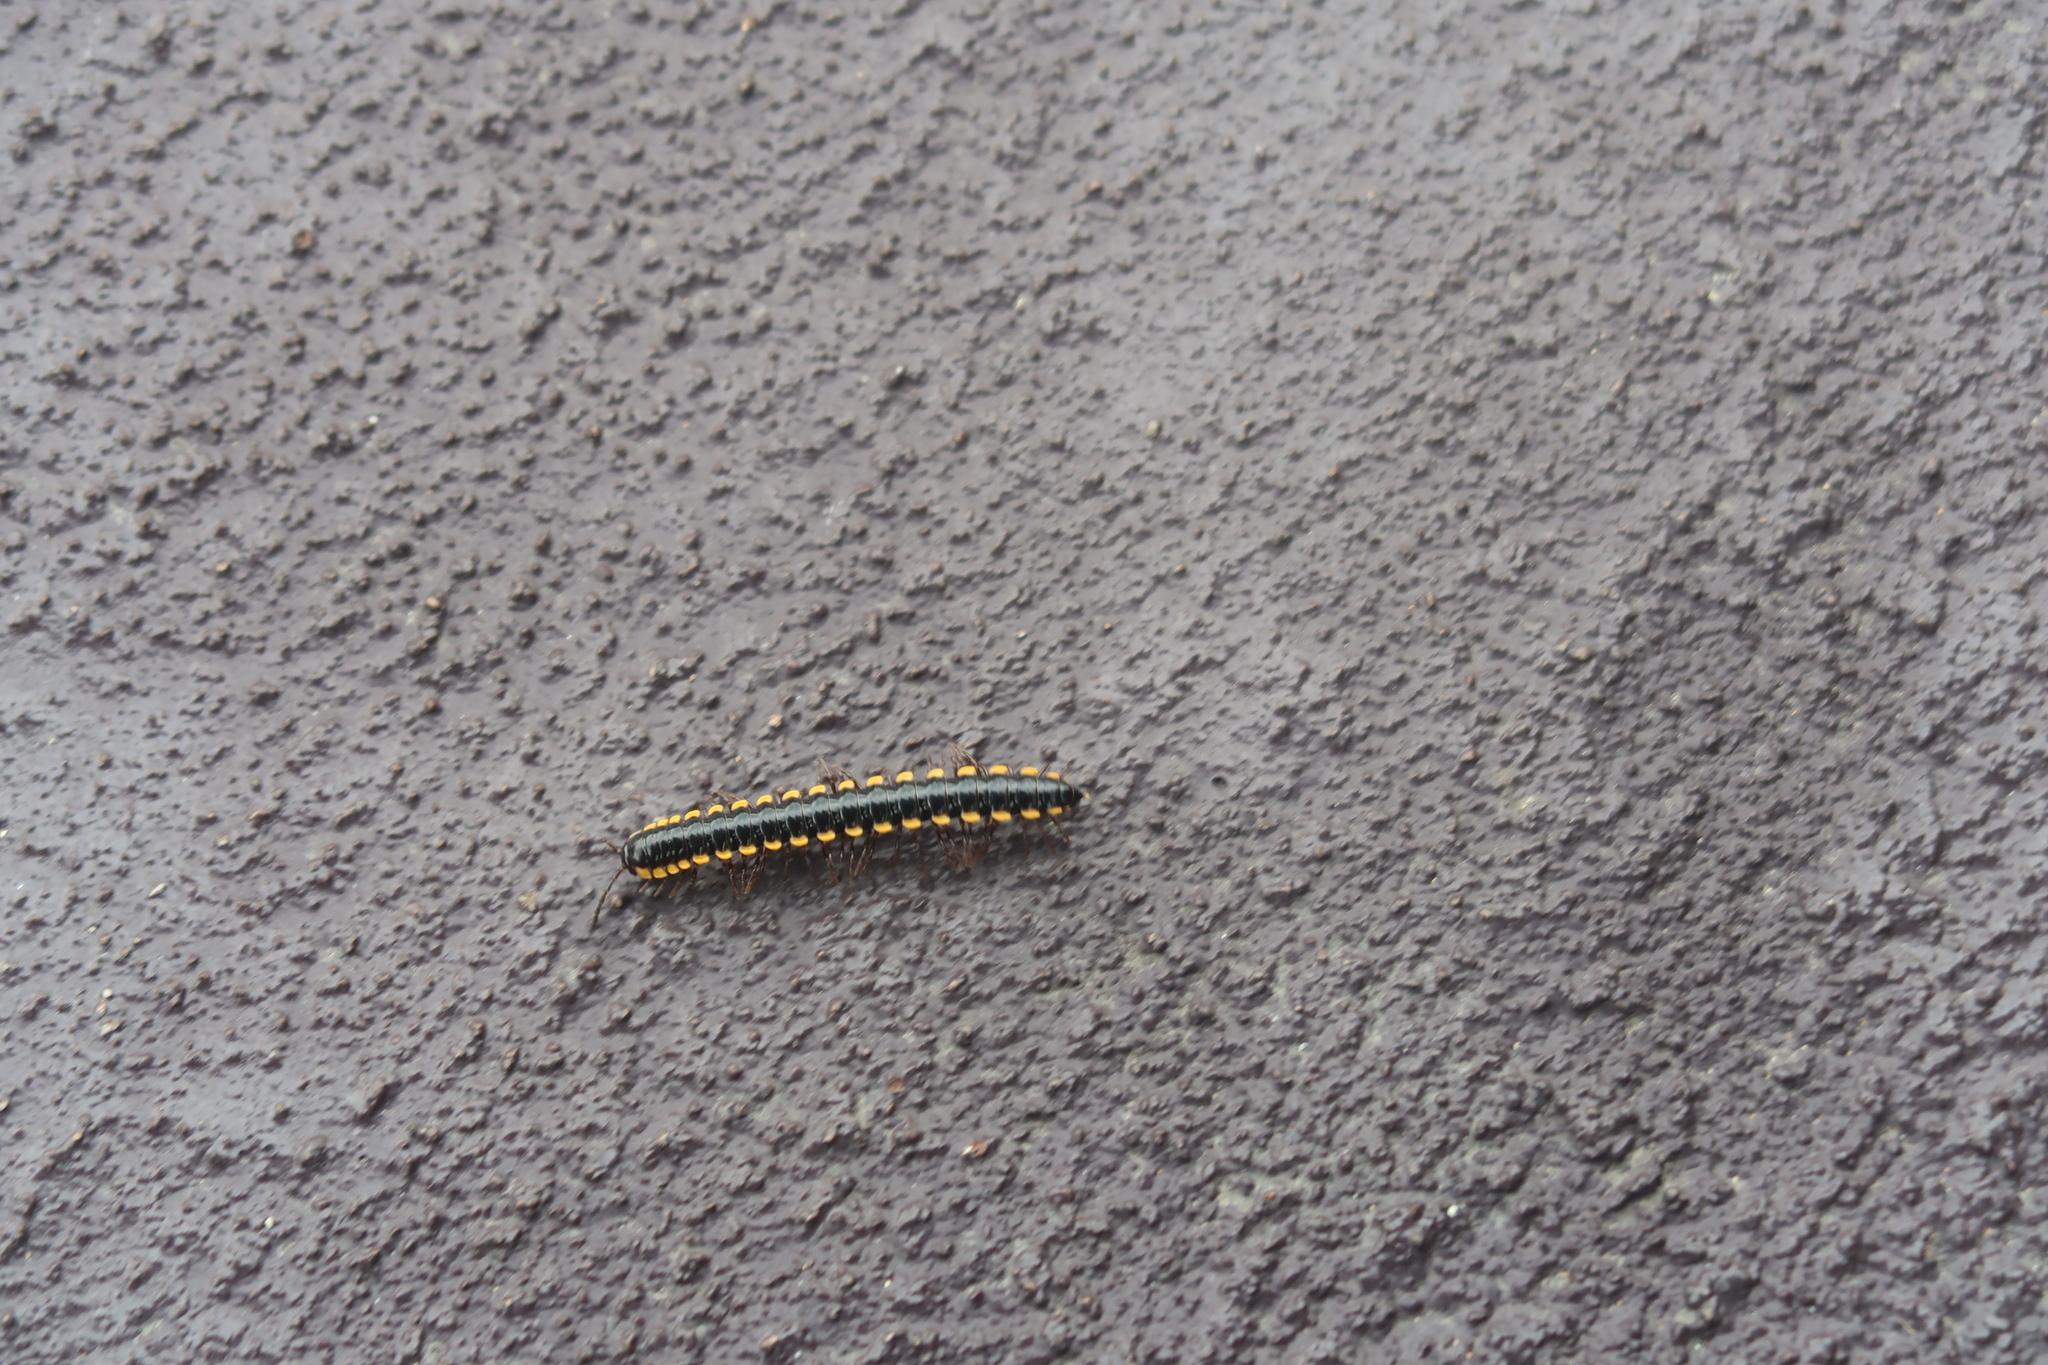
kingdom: Animalia
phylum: Arthropoda
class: Diplopoda
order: Polydesmida
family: Paradoxosomatidae
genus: Anoplodesmus
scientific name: Anoplodesmus saussurii
